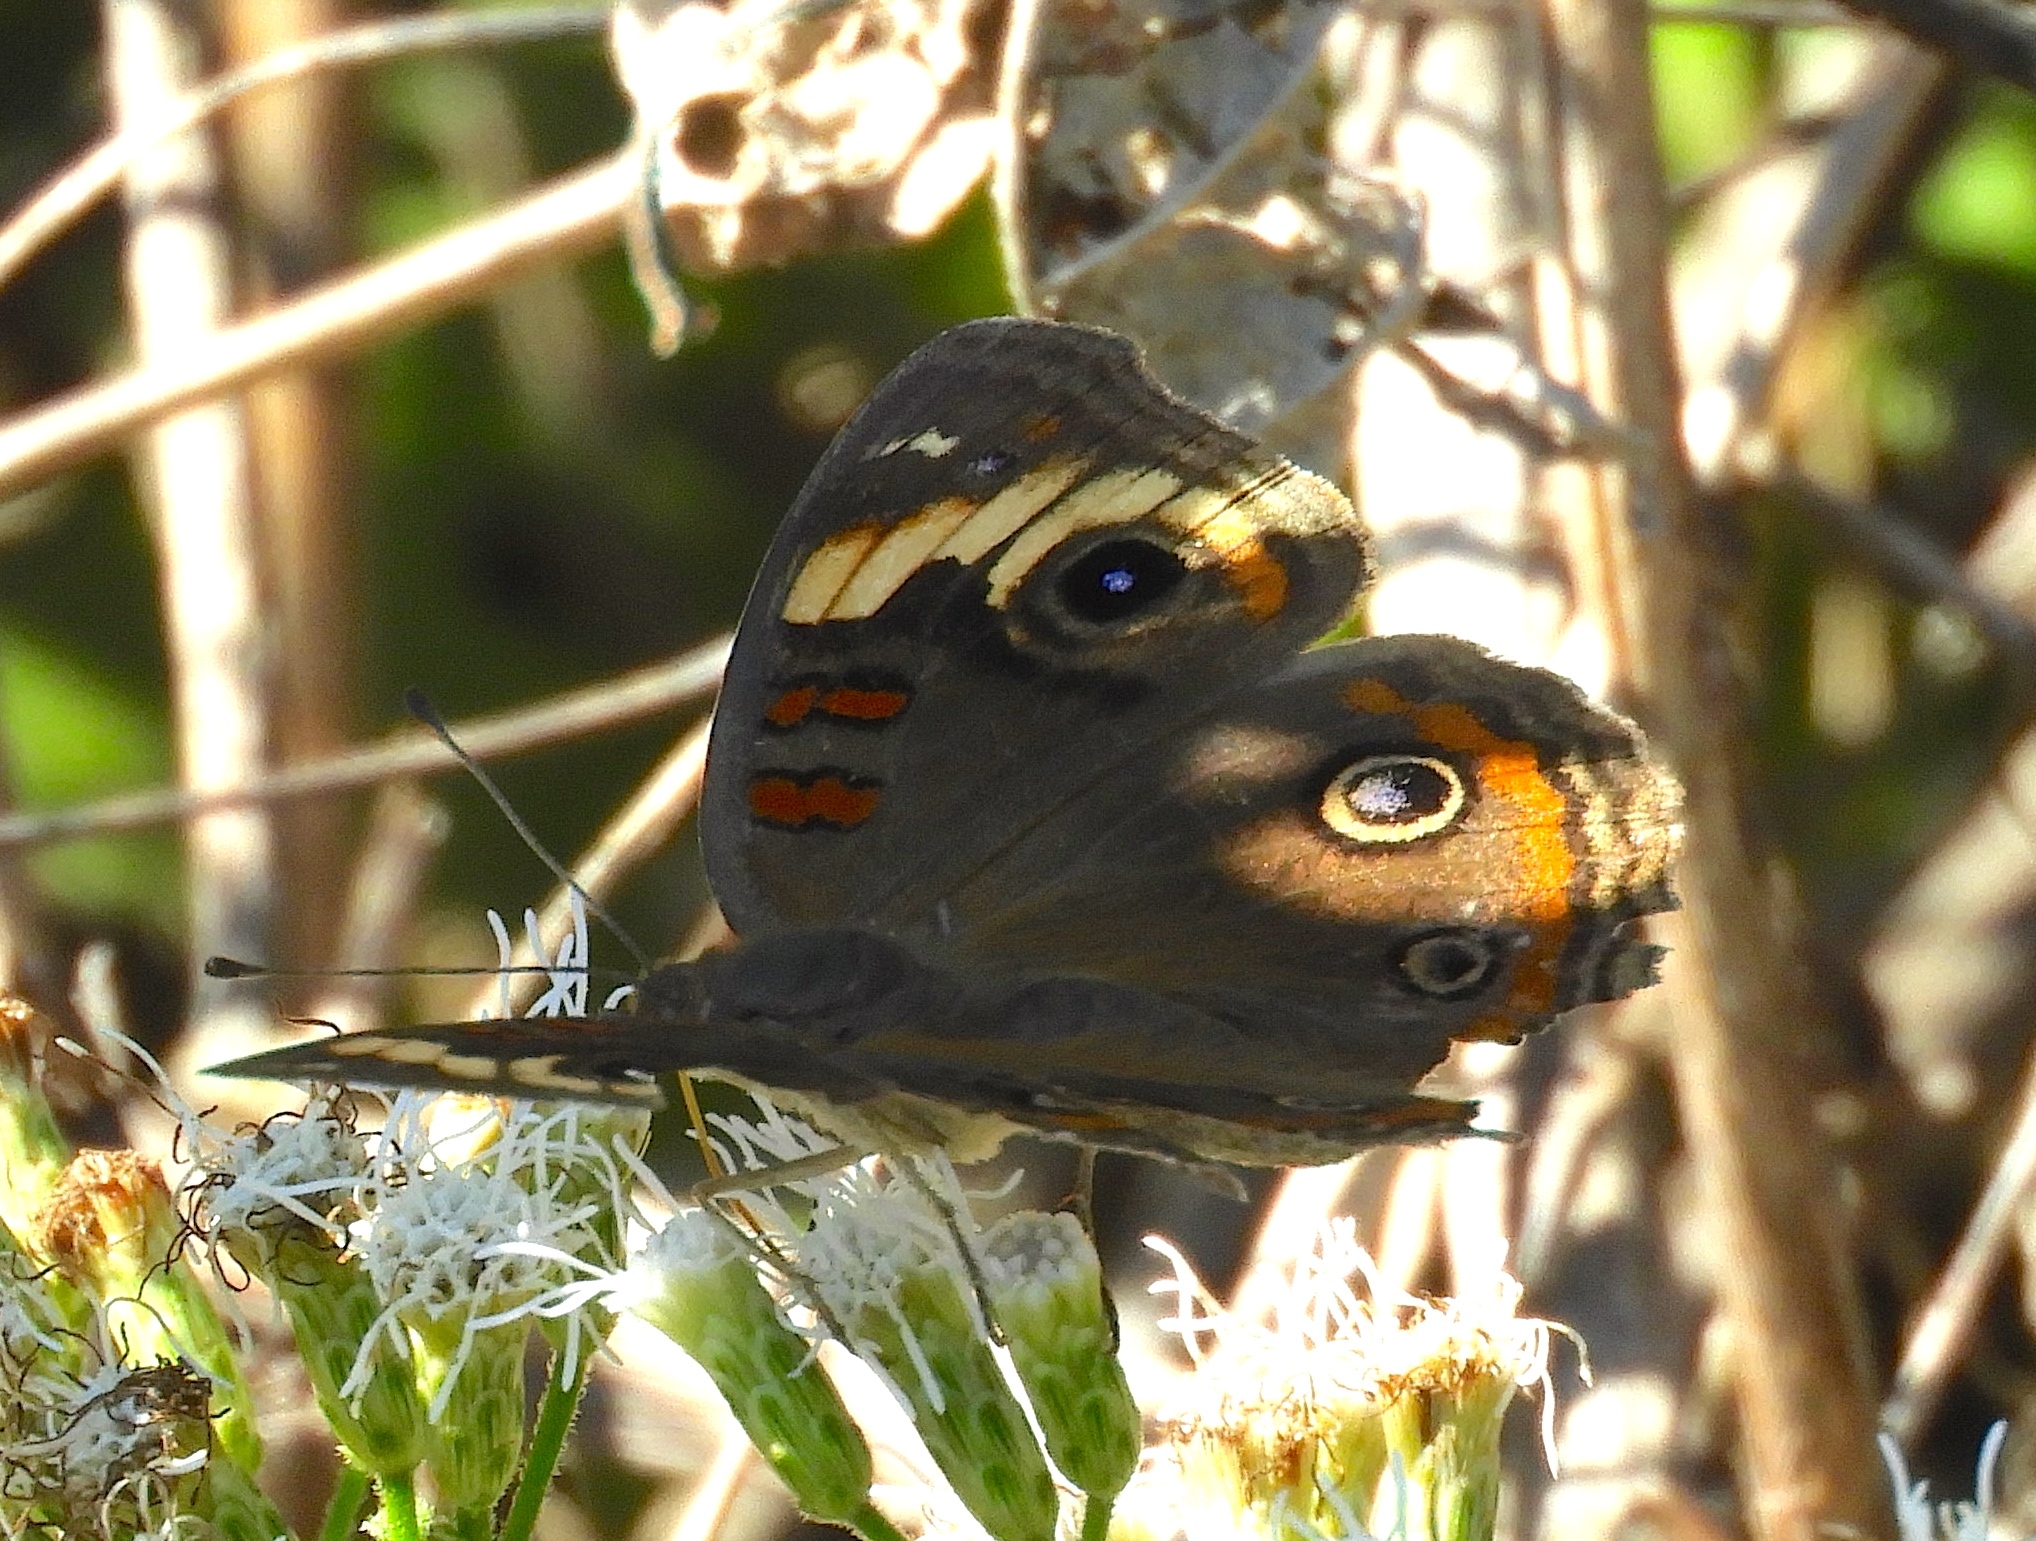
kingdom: Animalia
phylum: Arthropoda
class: Insecta
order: Lepidoptera
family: Nymphalidae
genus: Junonia
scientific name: Junonia
